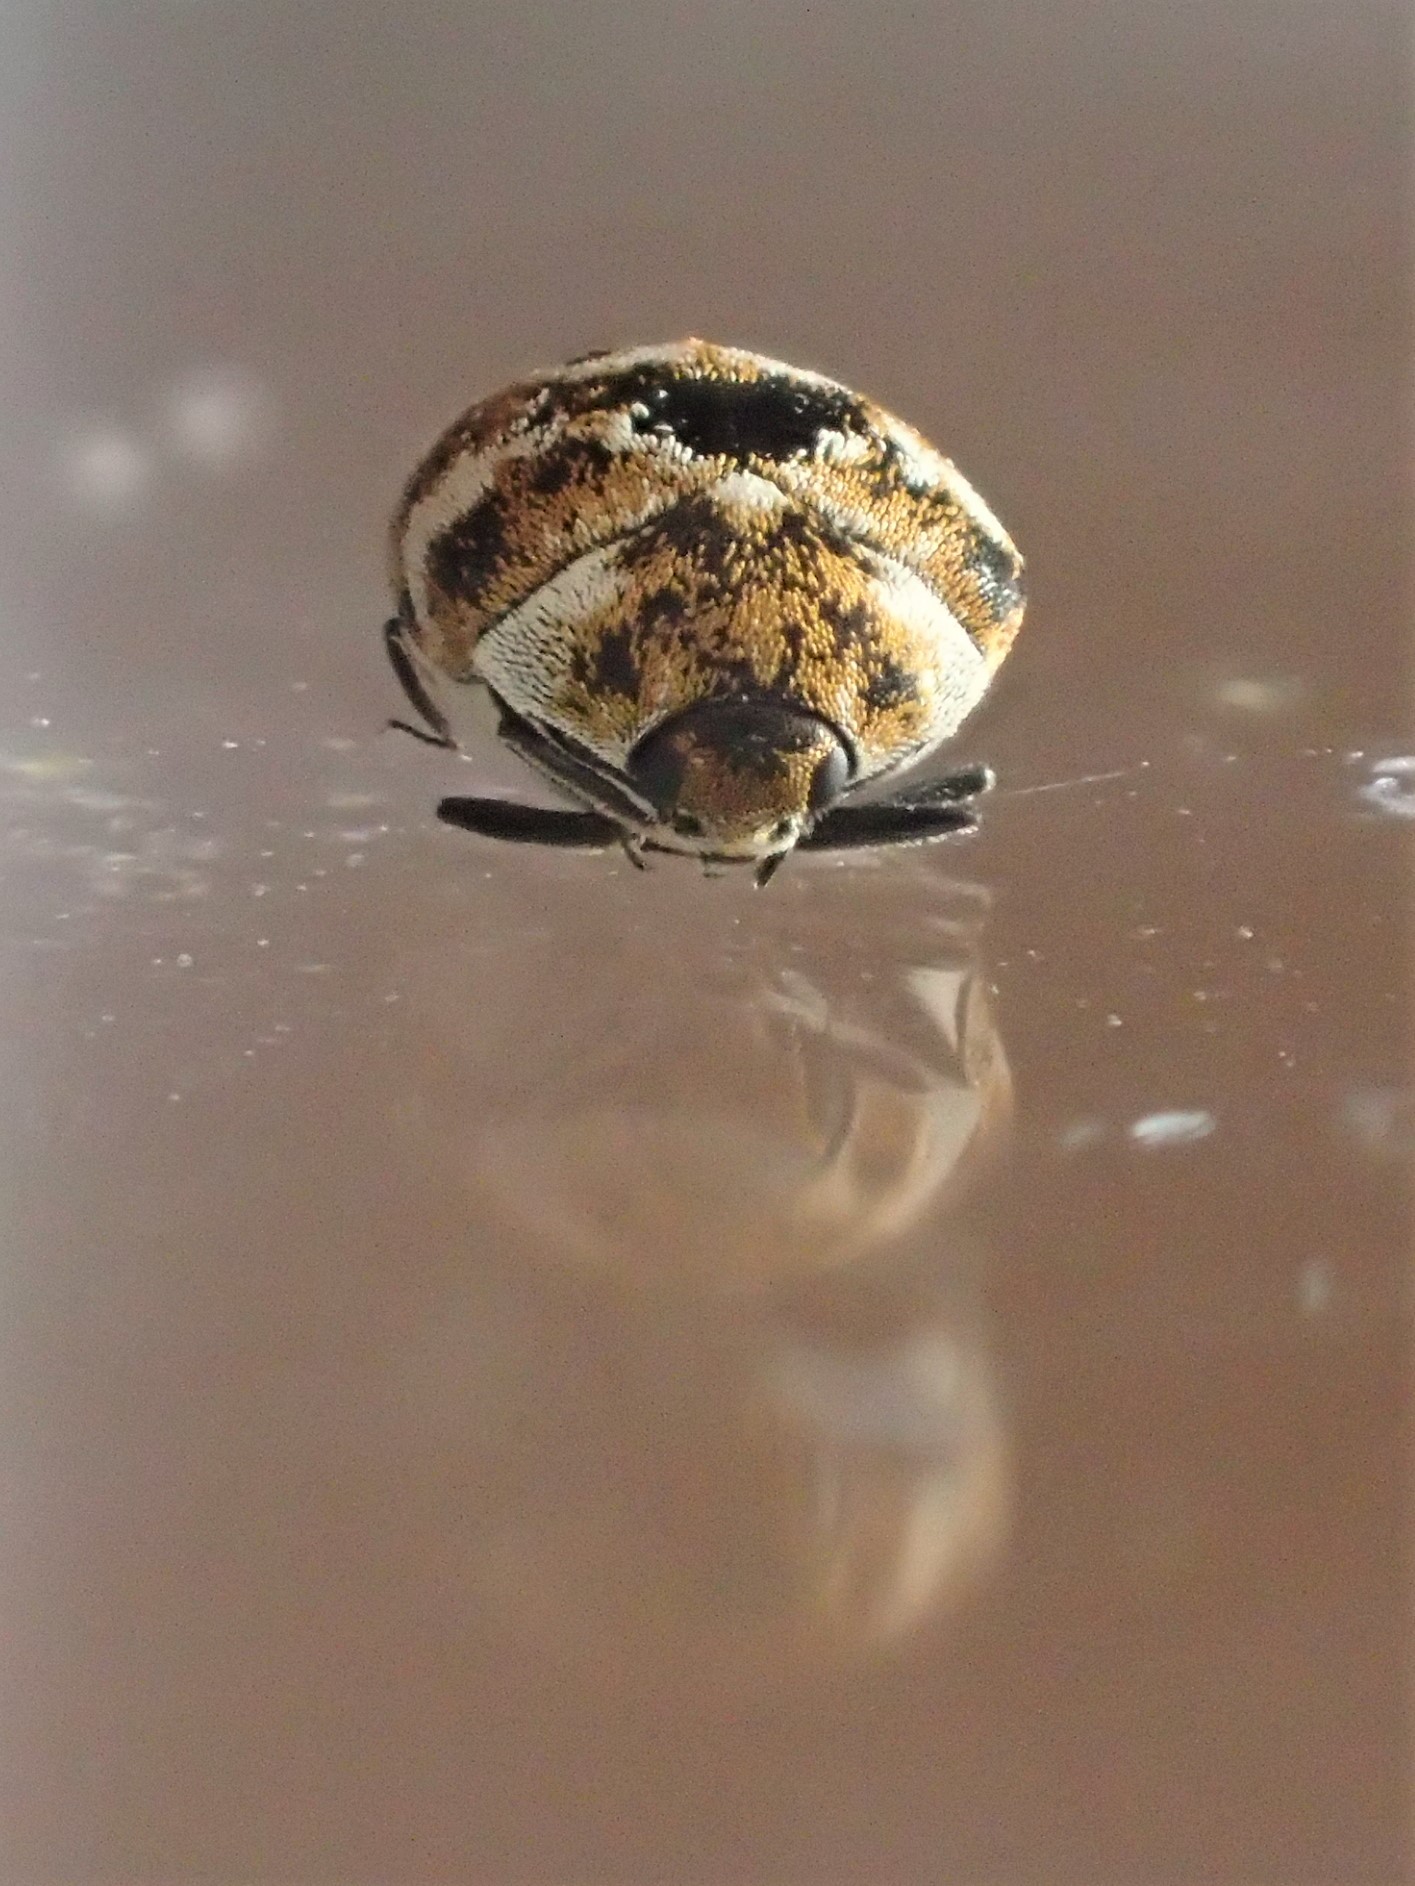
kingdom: Animalia
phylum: Arthropoda
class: Insecta
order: Coleoptera
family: Dermestidae
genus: Anthrenus
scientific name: Anthrenus verbasci
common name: Varied carpet beetle
